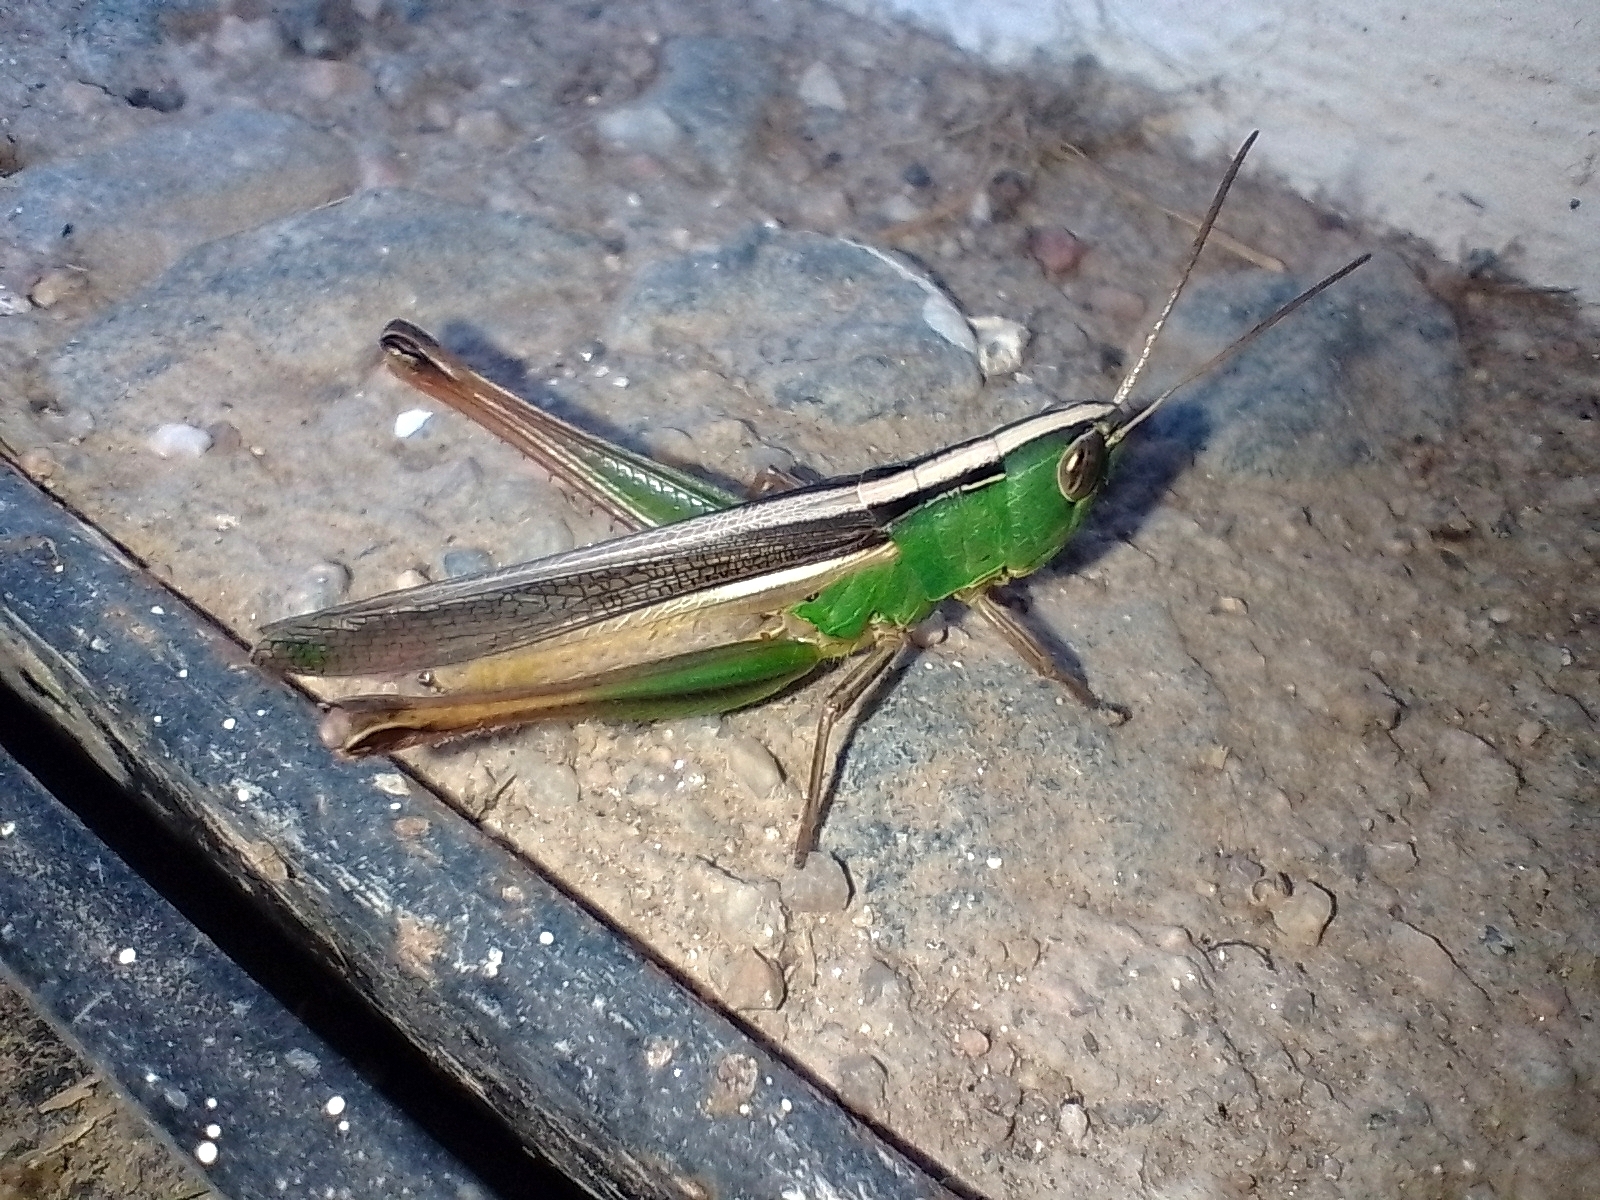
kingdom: Animalia
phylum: Arthropoda
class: Insecta
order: Orthoptera
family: Acrididae
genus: Staurorhectus
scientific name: Staurorhectus longicornis
